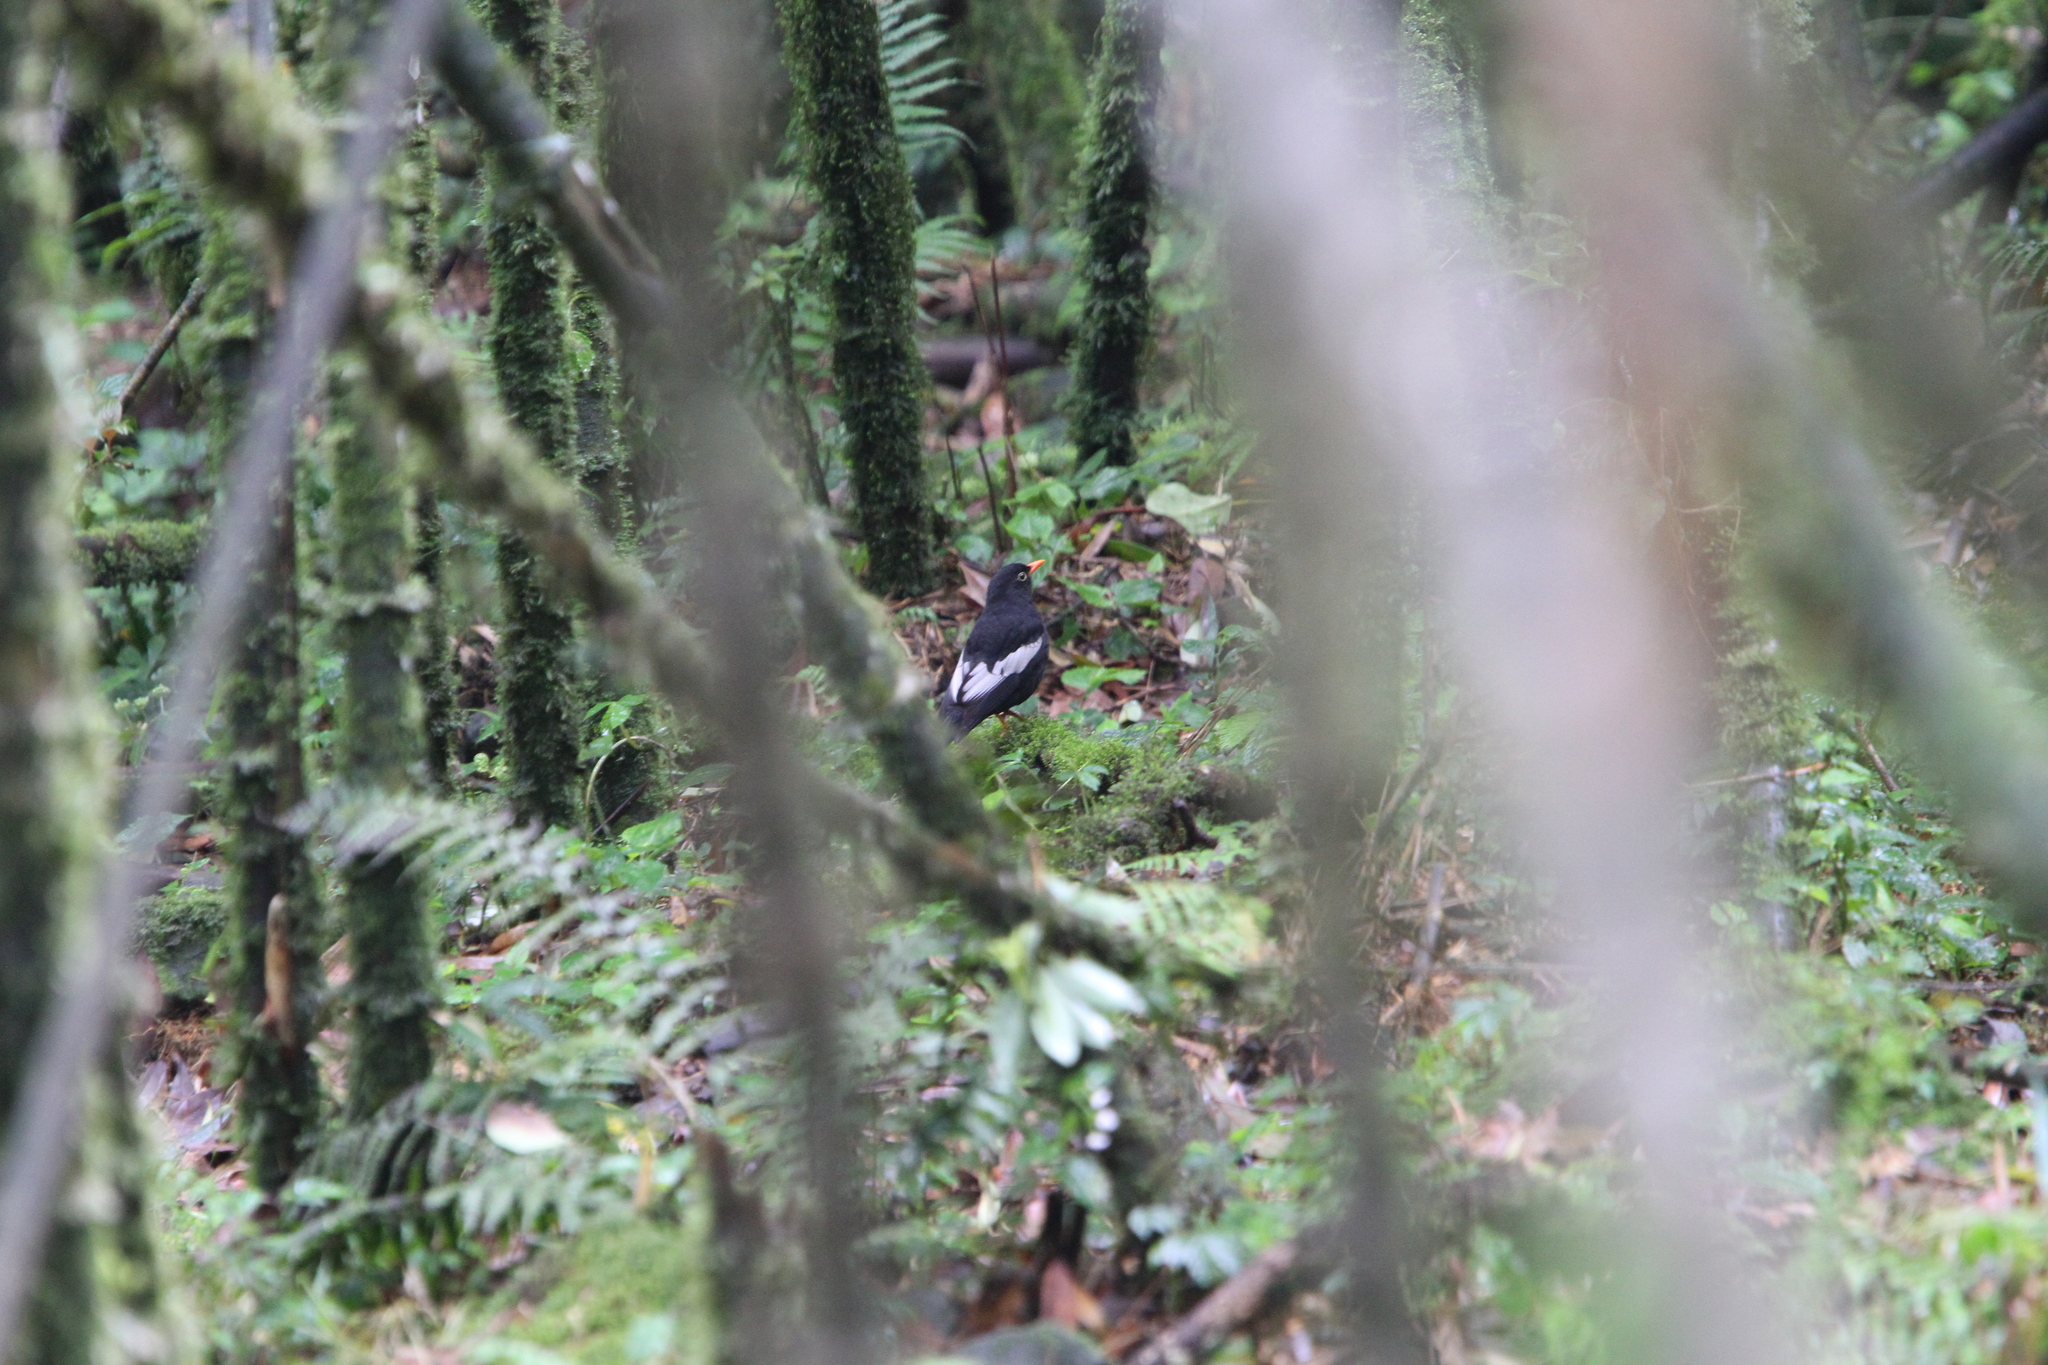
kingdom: Animalia
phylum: Chordata
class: Aves
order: Passeriformes
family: Turdidae
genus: Turdus
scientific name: Turdus boulboul
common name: Grey-winged blackbird
